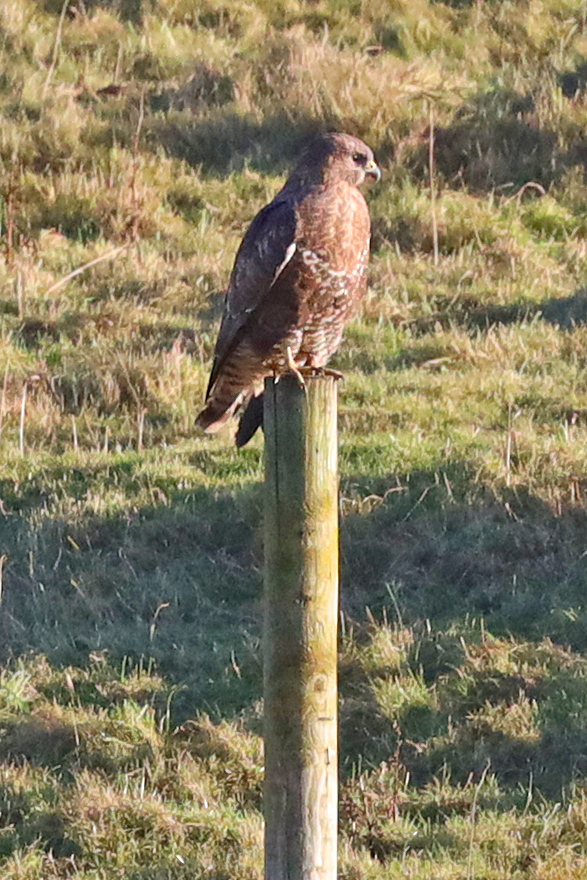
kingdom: Animalia
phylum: Chordata
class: Aves
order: Accipitriformes
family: Accipitridae
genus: Buteo
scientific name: Buteo buteo
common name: Common buzzard
